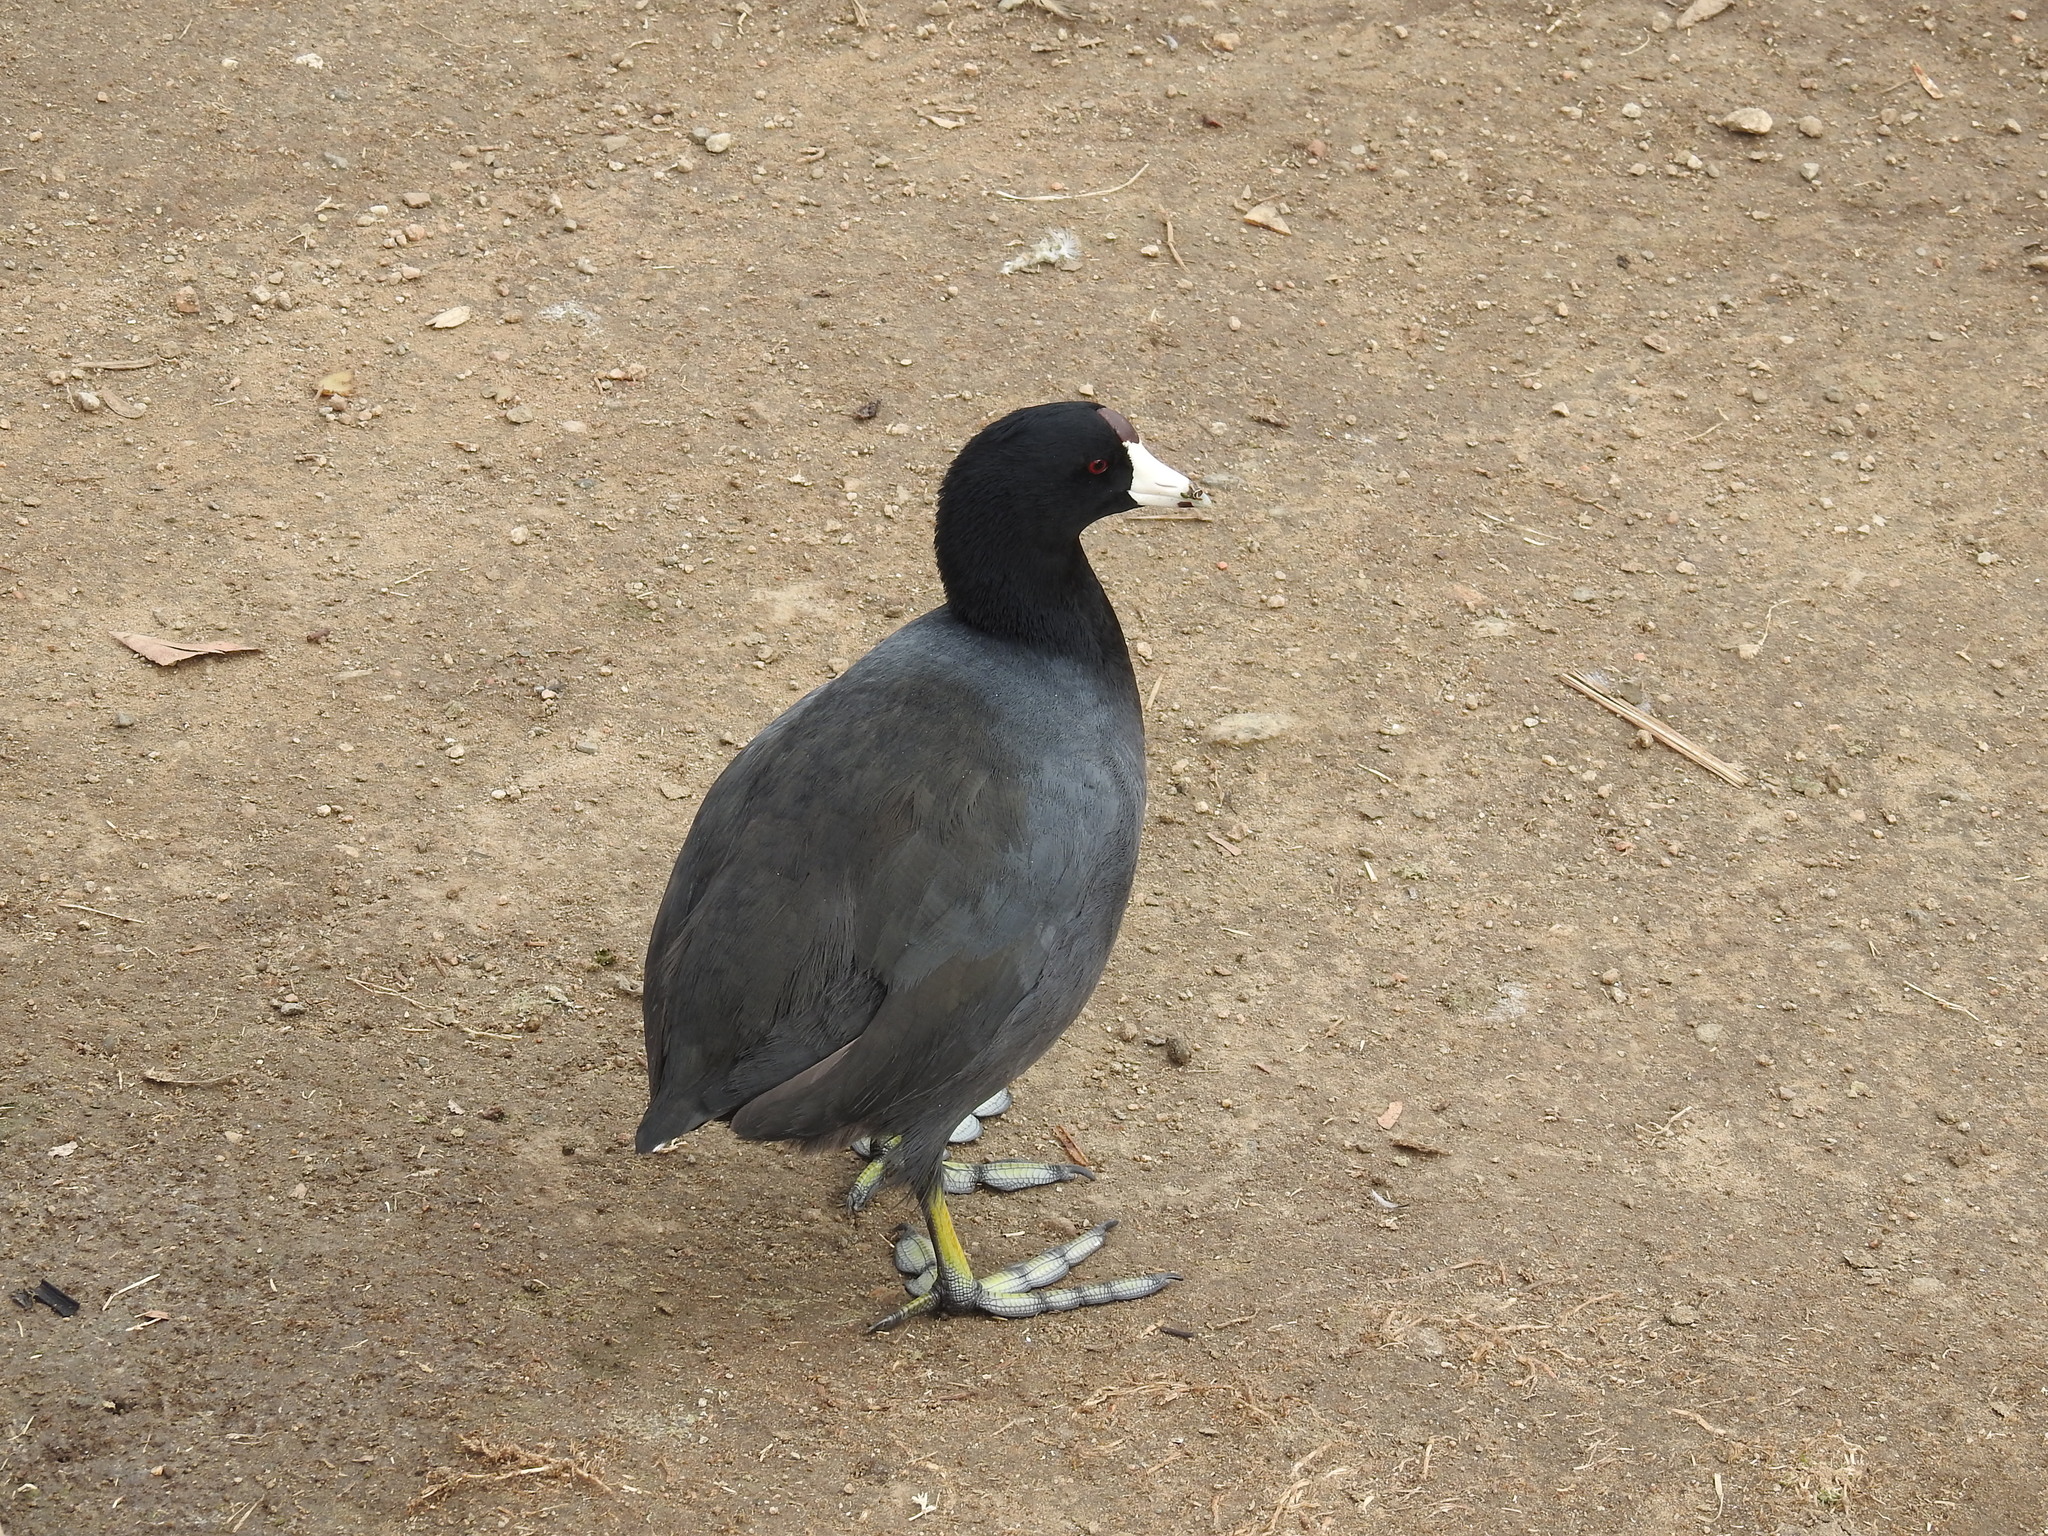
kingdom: Animalia
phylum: Chordata
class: Aves
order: Gruiformes
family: Rallidae
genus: Fulica
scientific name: Fulica americana
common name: American coot
